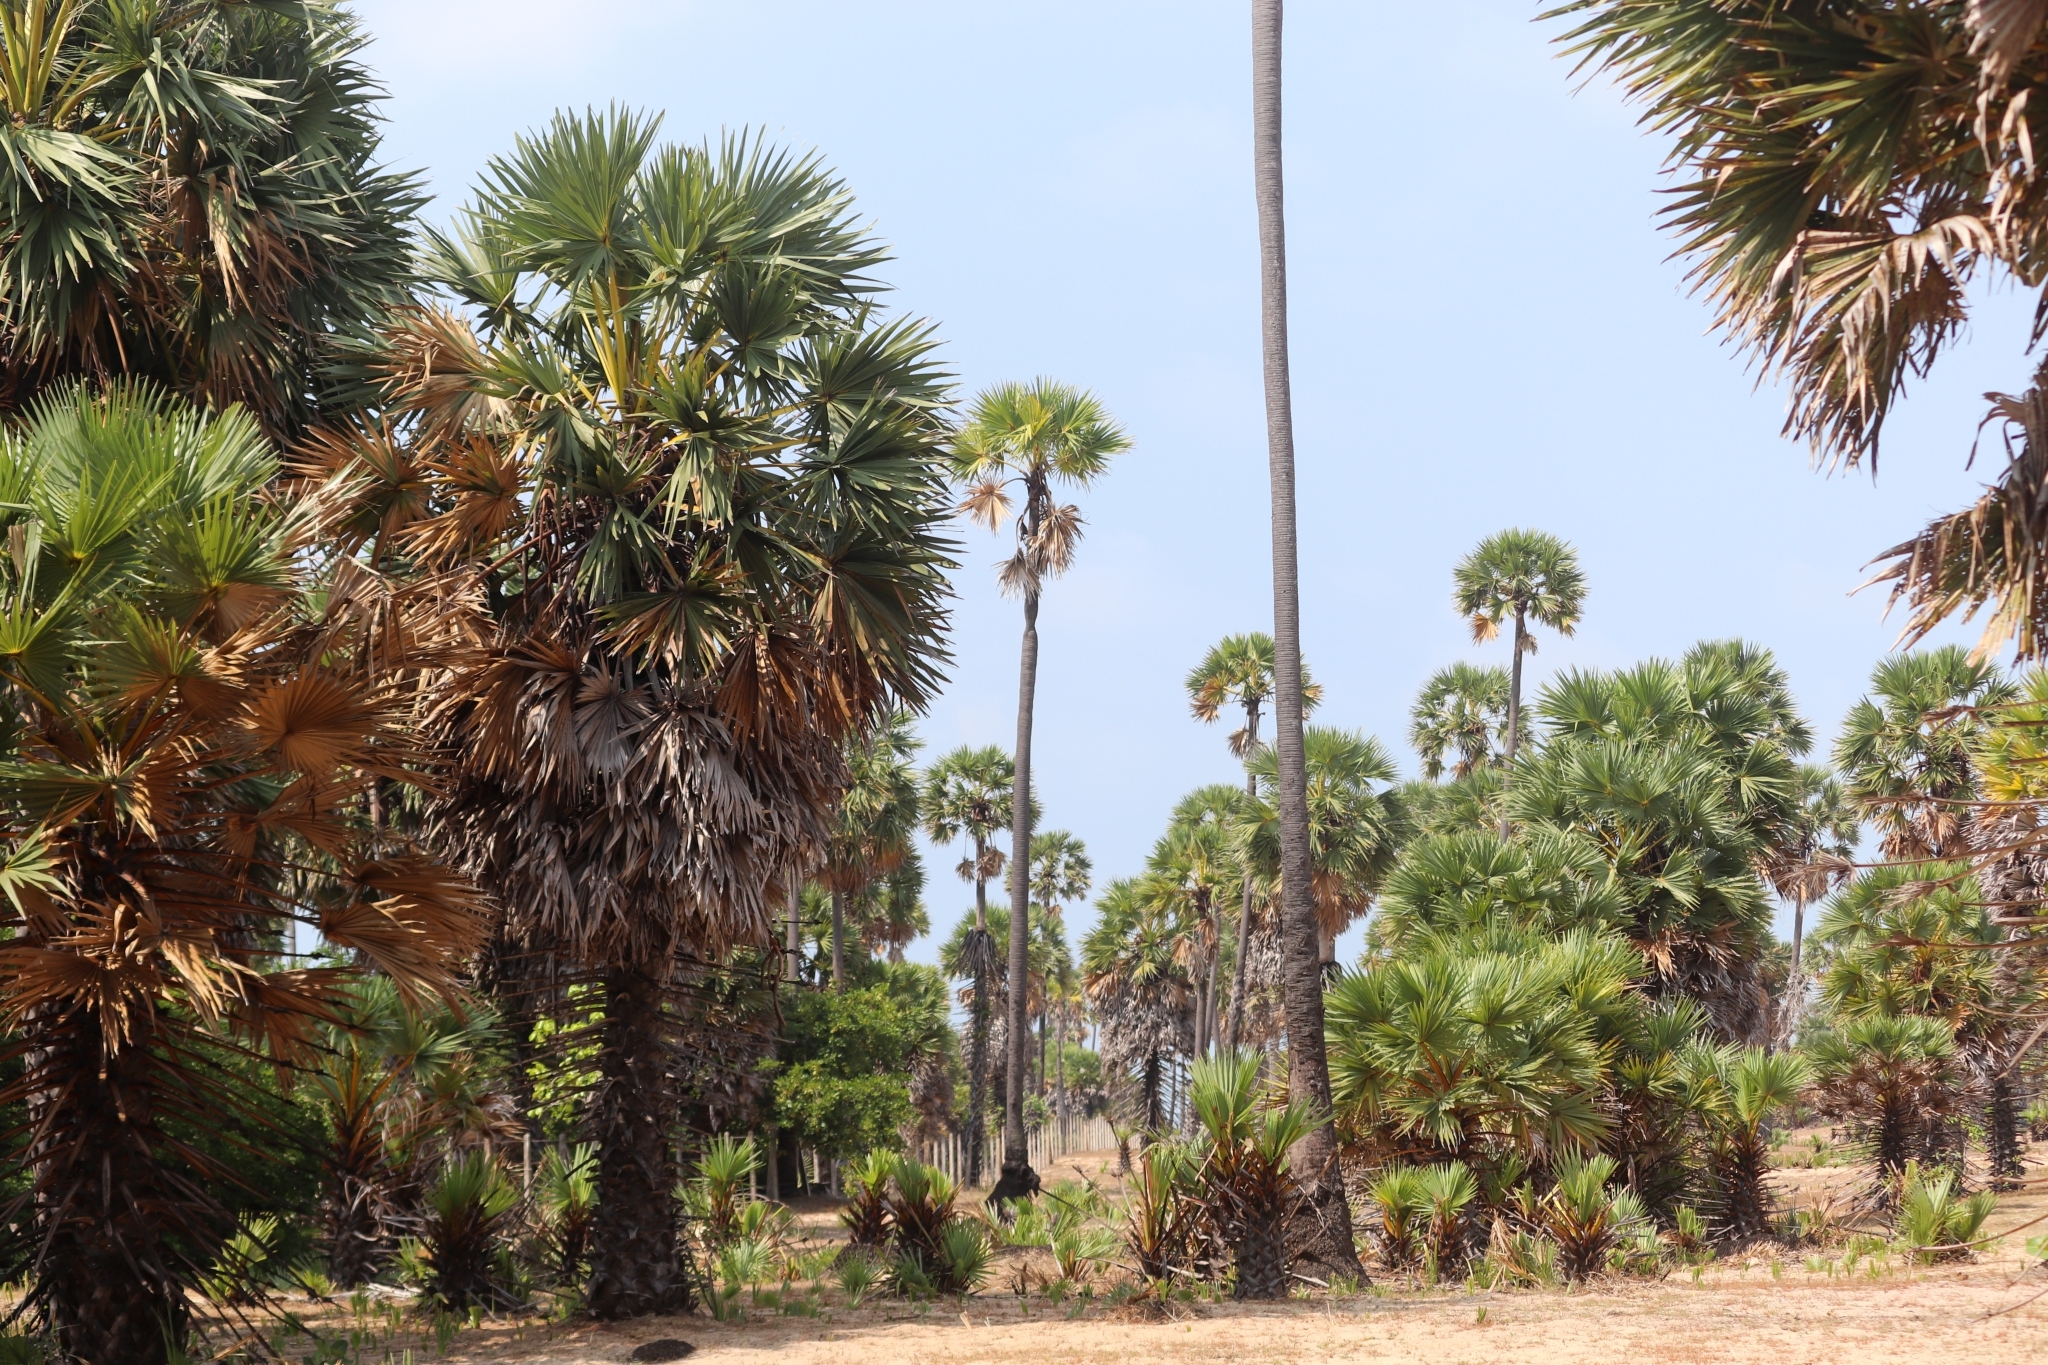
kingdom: Plantae
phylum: Tracheophyta
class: Liliopsida
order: Arecales
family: Arecaceae
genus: Borassus
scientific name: Borassus flabellifer
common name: Palmyra palm
